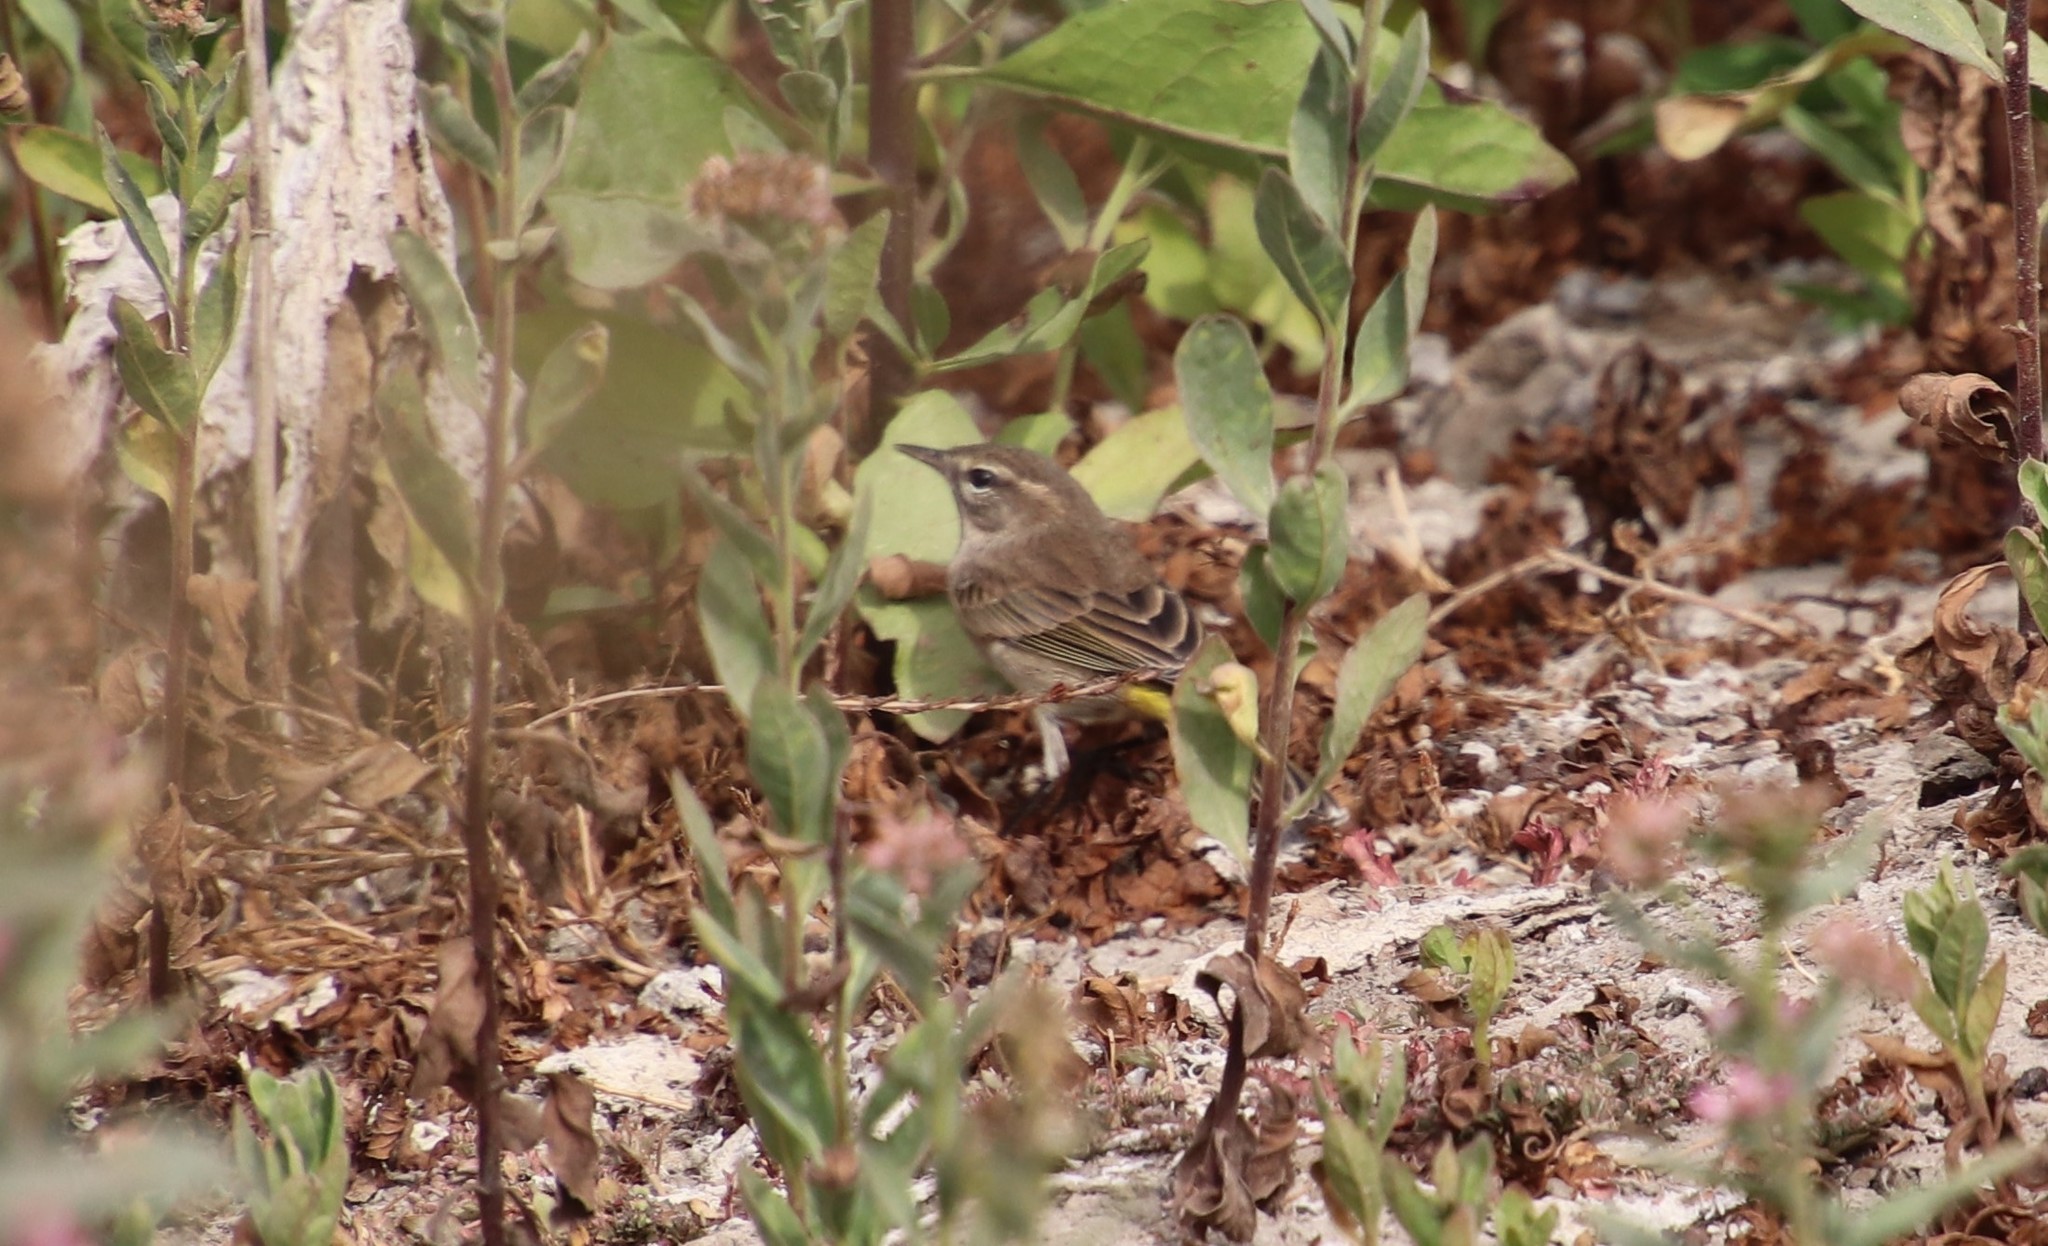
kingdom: Animalia
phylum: Chordata
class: Aves
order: Passeriformes
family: Parulidae
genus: Setophaga
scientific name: Setophaga palmarum
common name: Palm warbler
